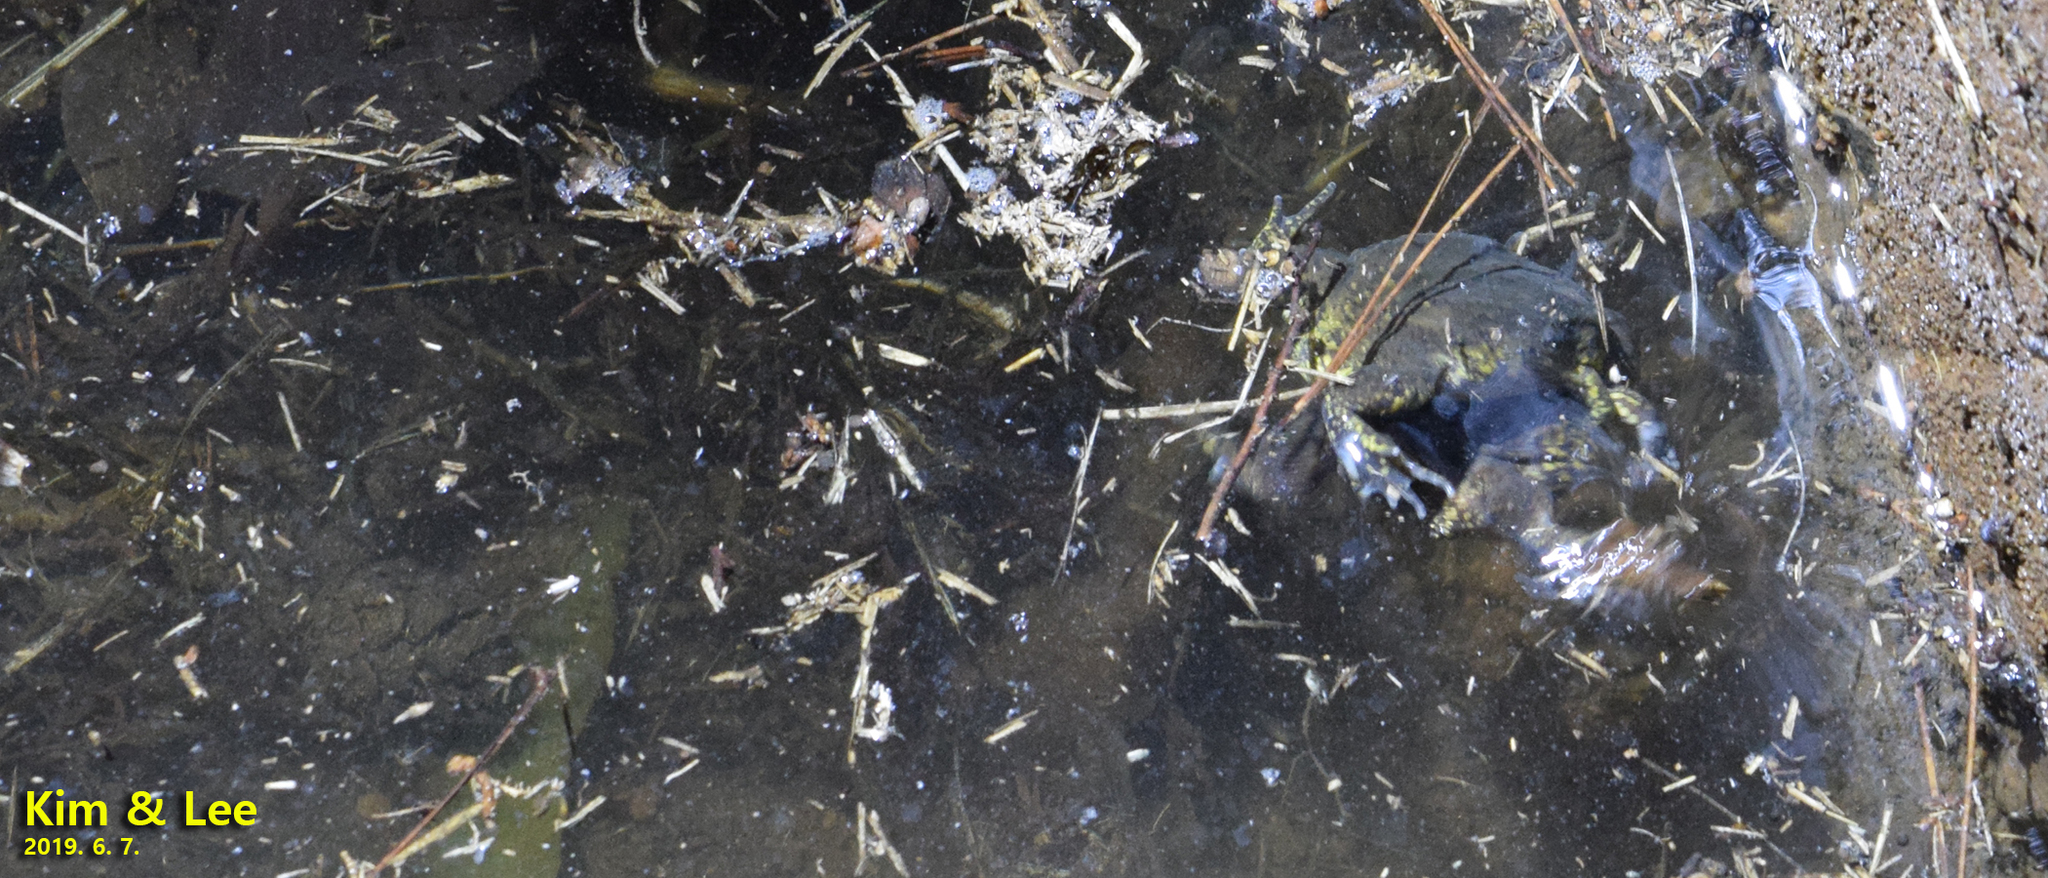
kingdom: Animalia
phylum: Chordata
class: Amphibia
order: Anura
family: Microhylidae
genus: Kaloula
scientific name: Kaloula borealis
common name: Boreal digging frog
